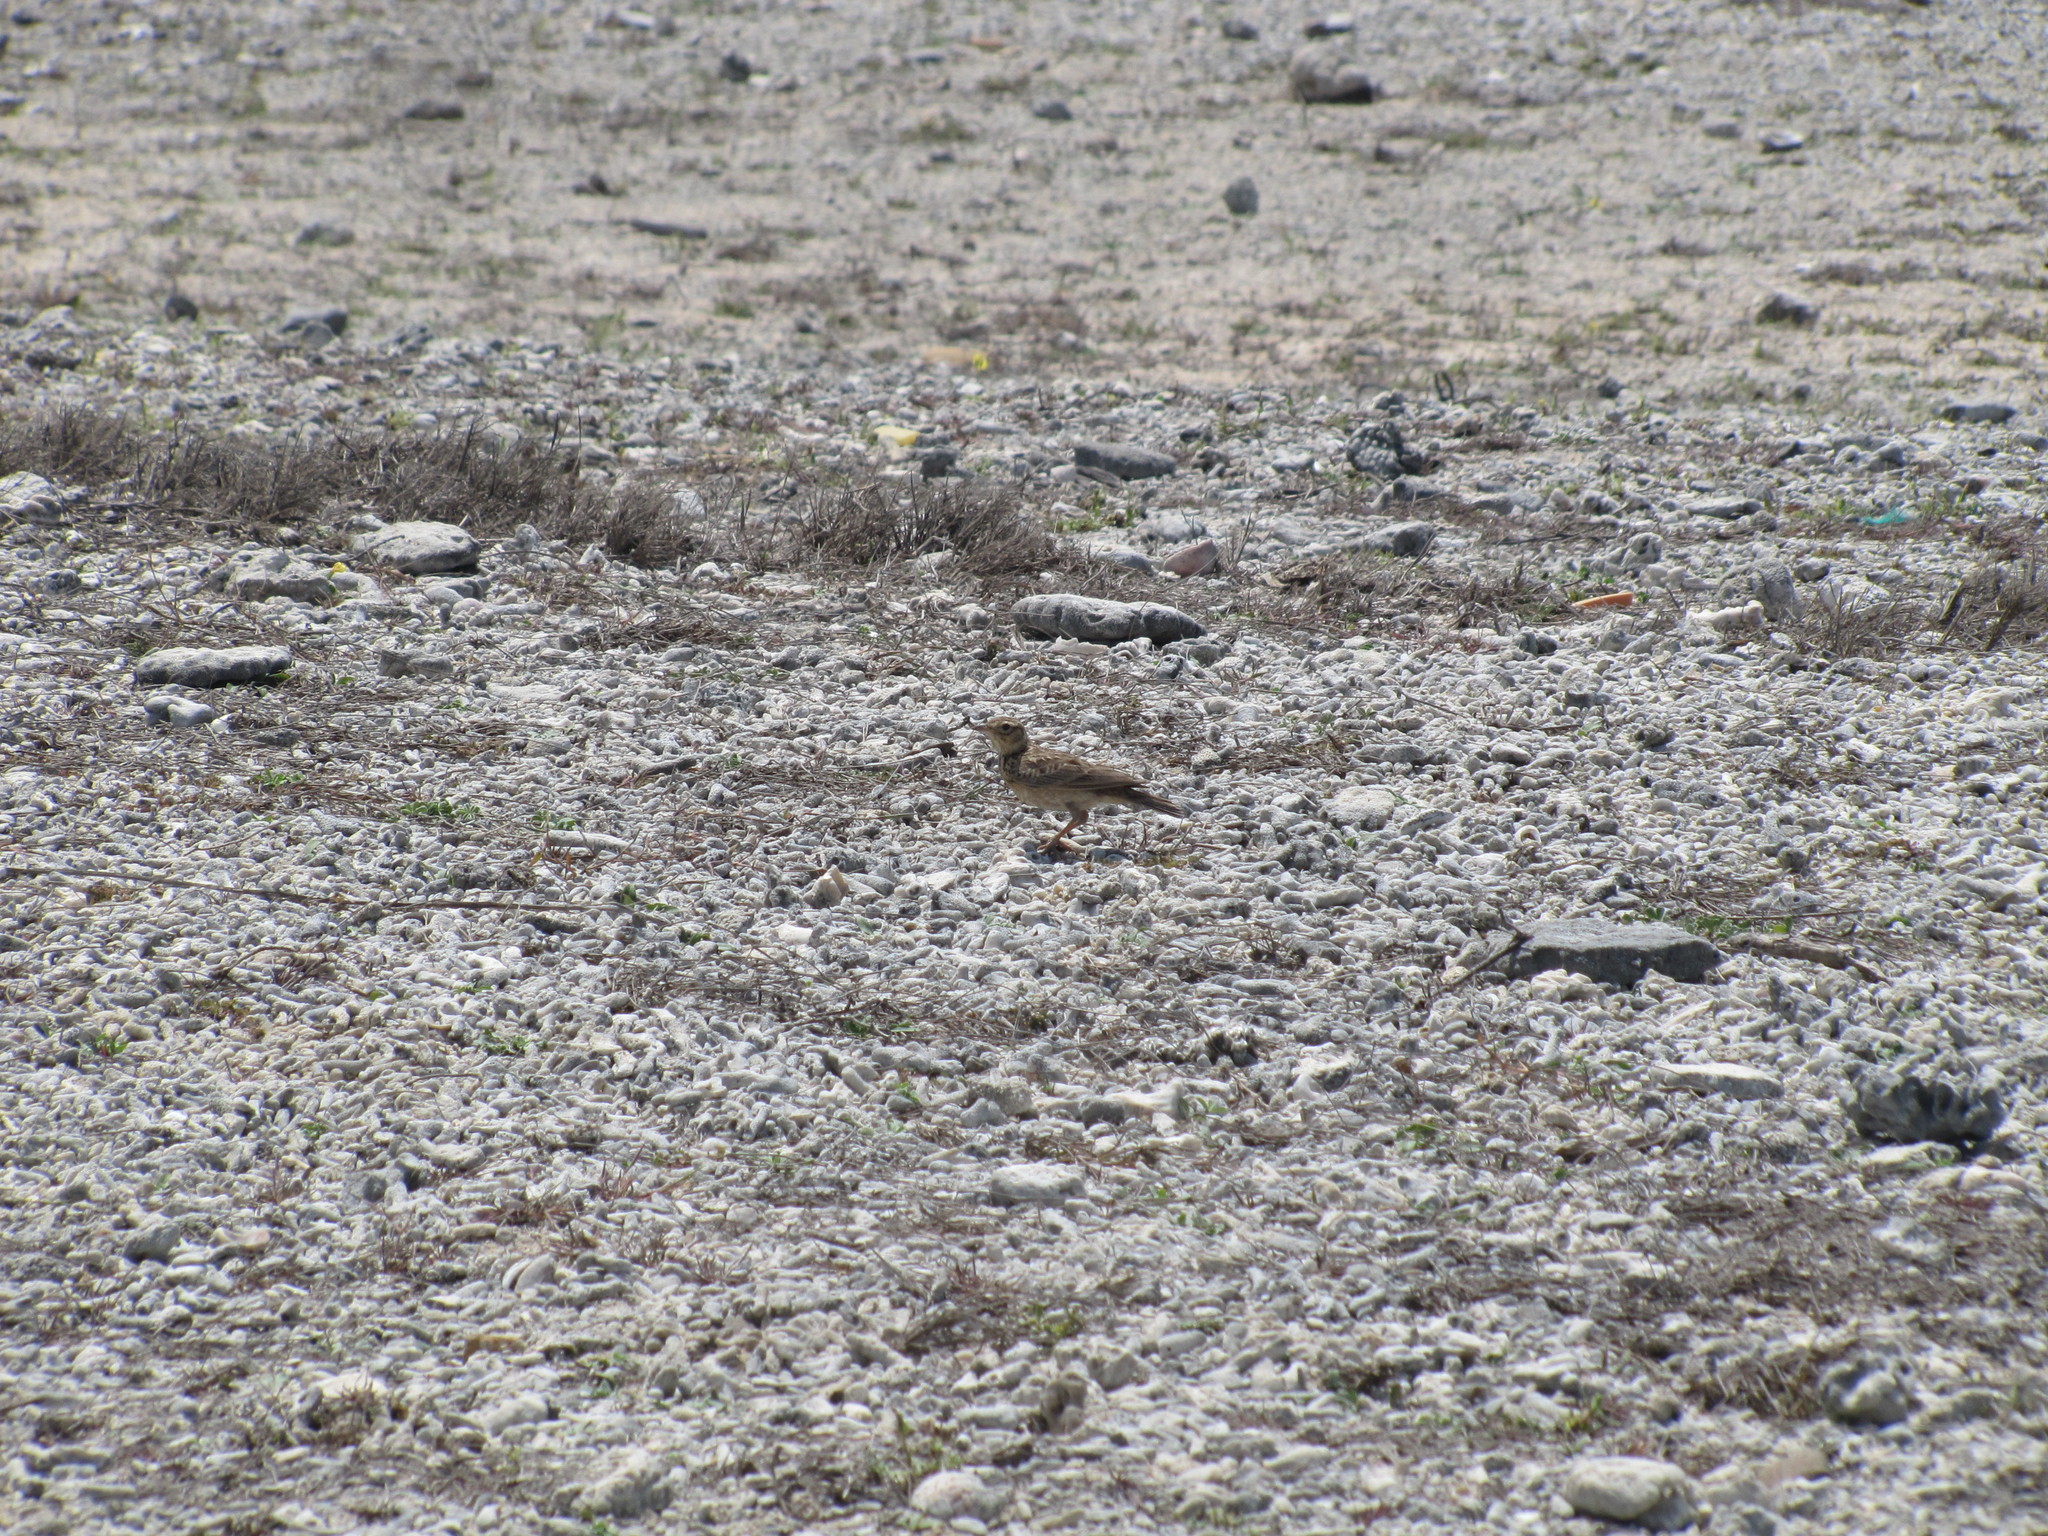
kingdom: Animalia
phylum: Chordata
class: Aves
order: Passeriformes
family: Alaudidae
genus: Alauda
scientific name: Alauda gulgula
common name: Oriental skylark
